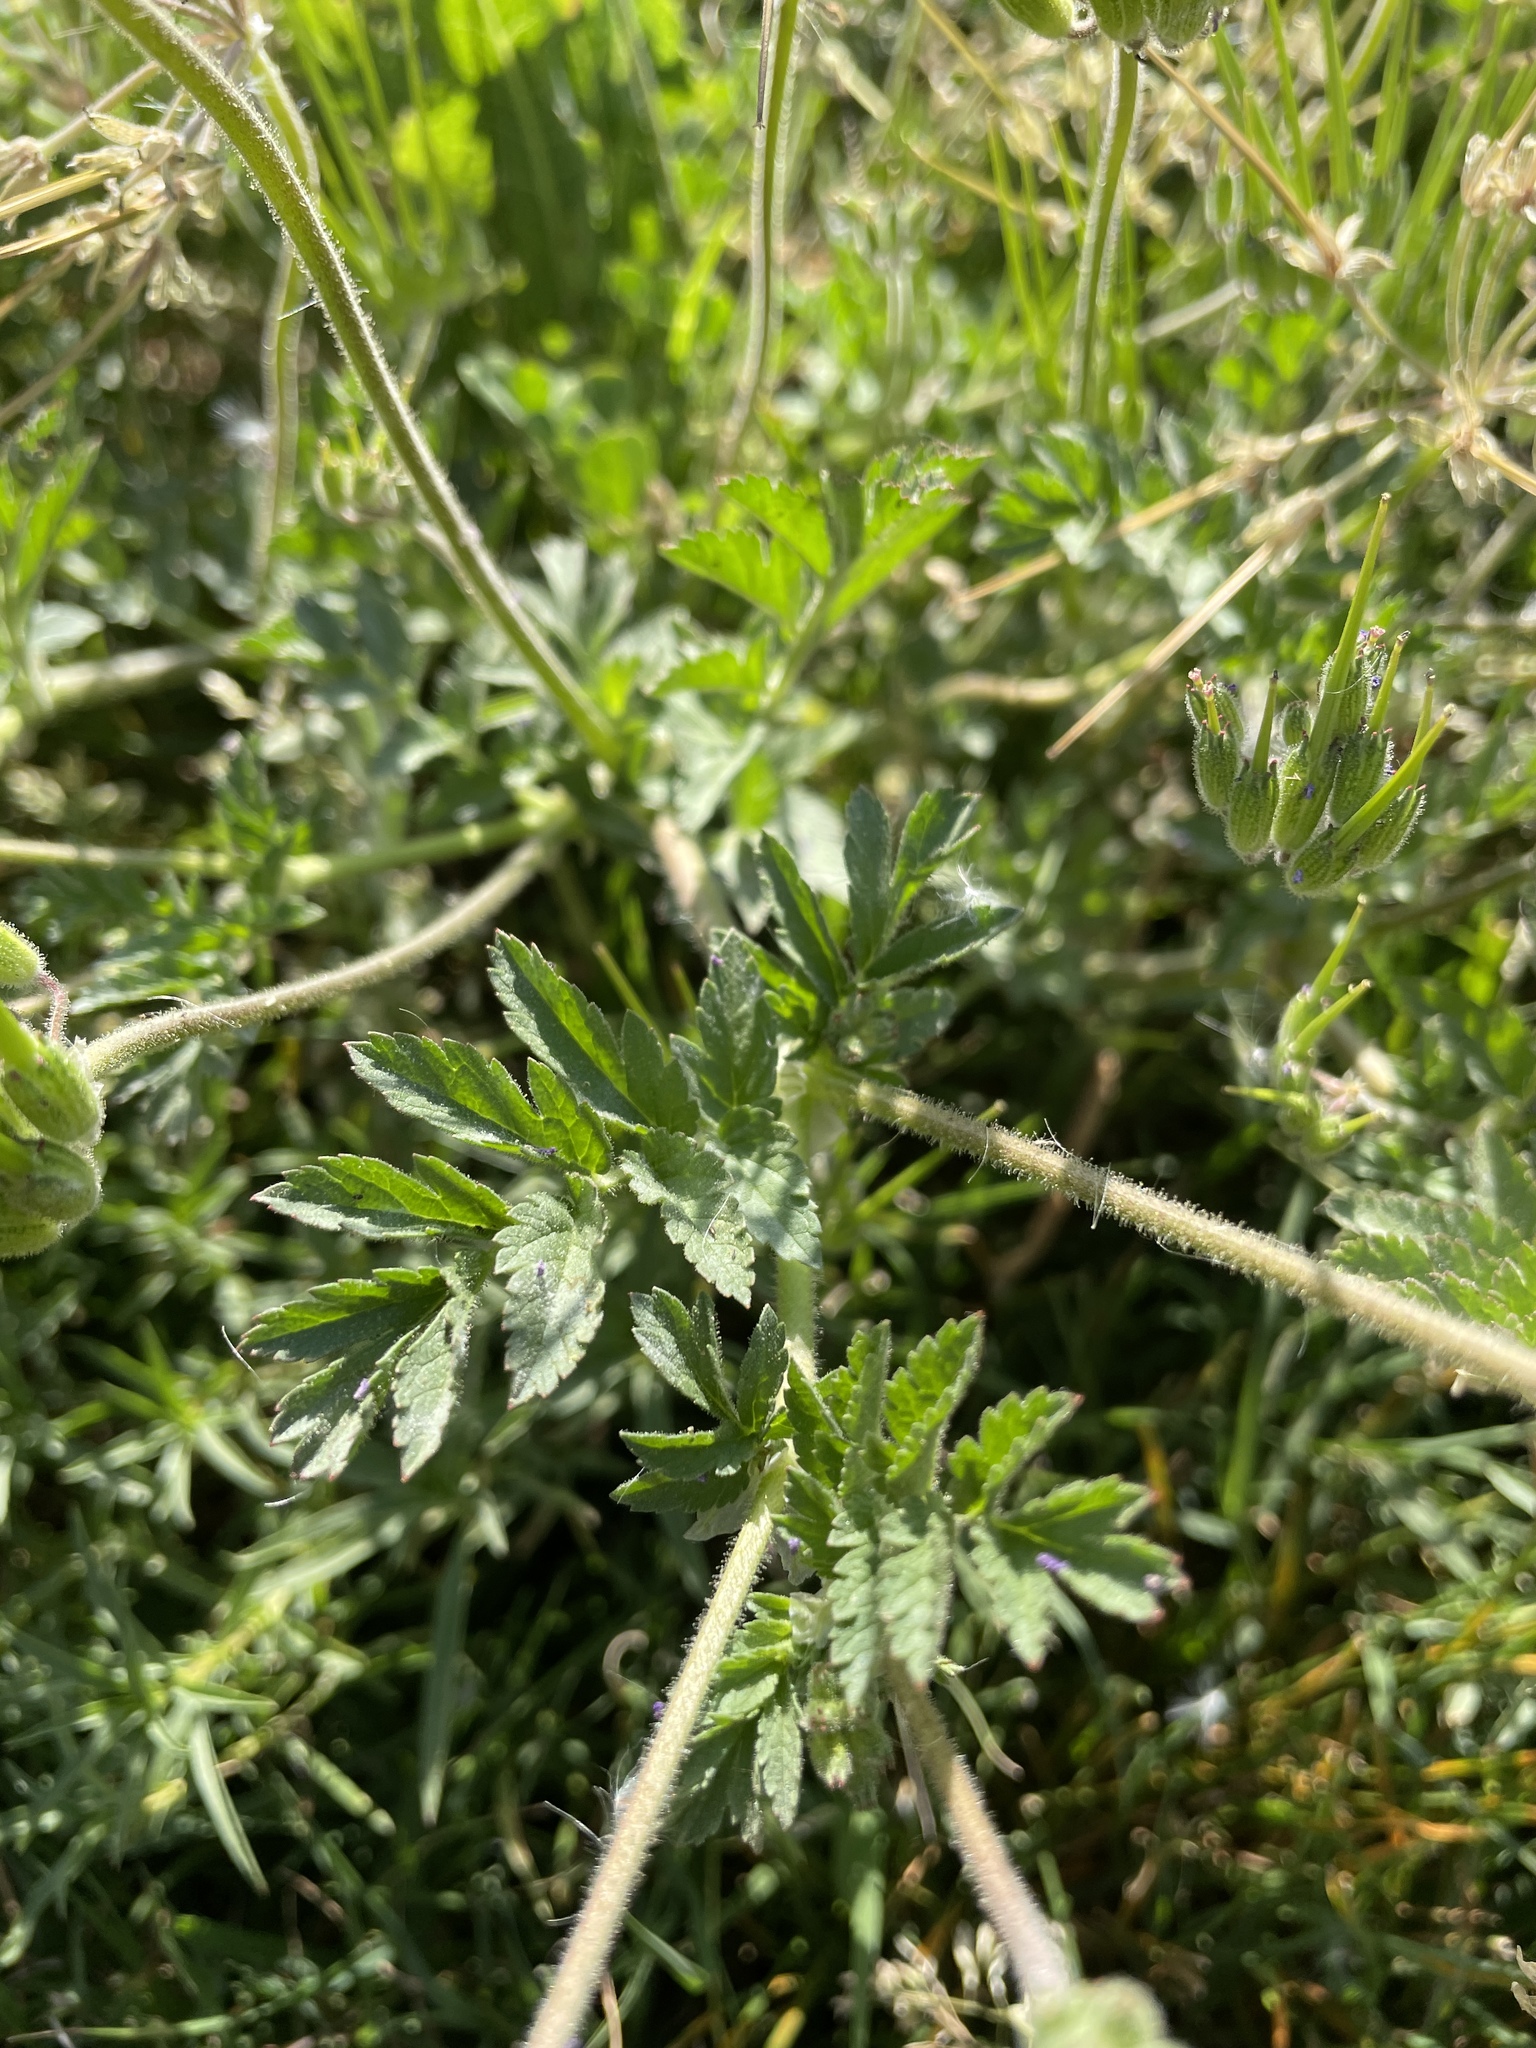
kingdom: Plantae
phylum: Tracheophyta
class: Magnoliopsida
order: Geraniales
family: Geraniaceae
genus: Erodium
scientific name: Erodium moschatum
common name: Musk stork's-bill
